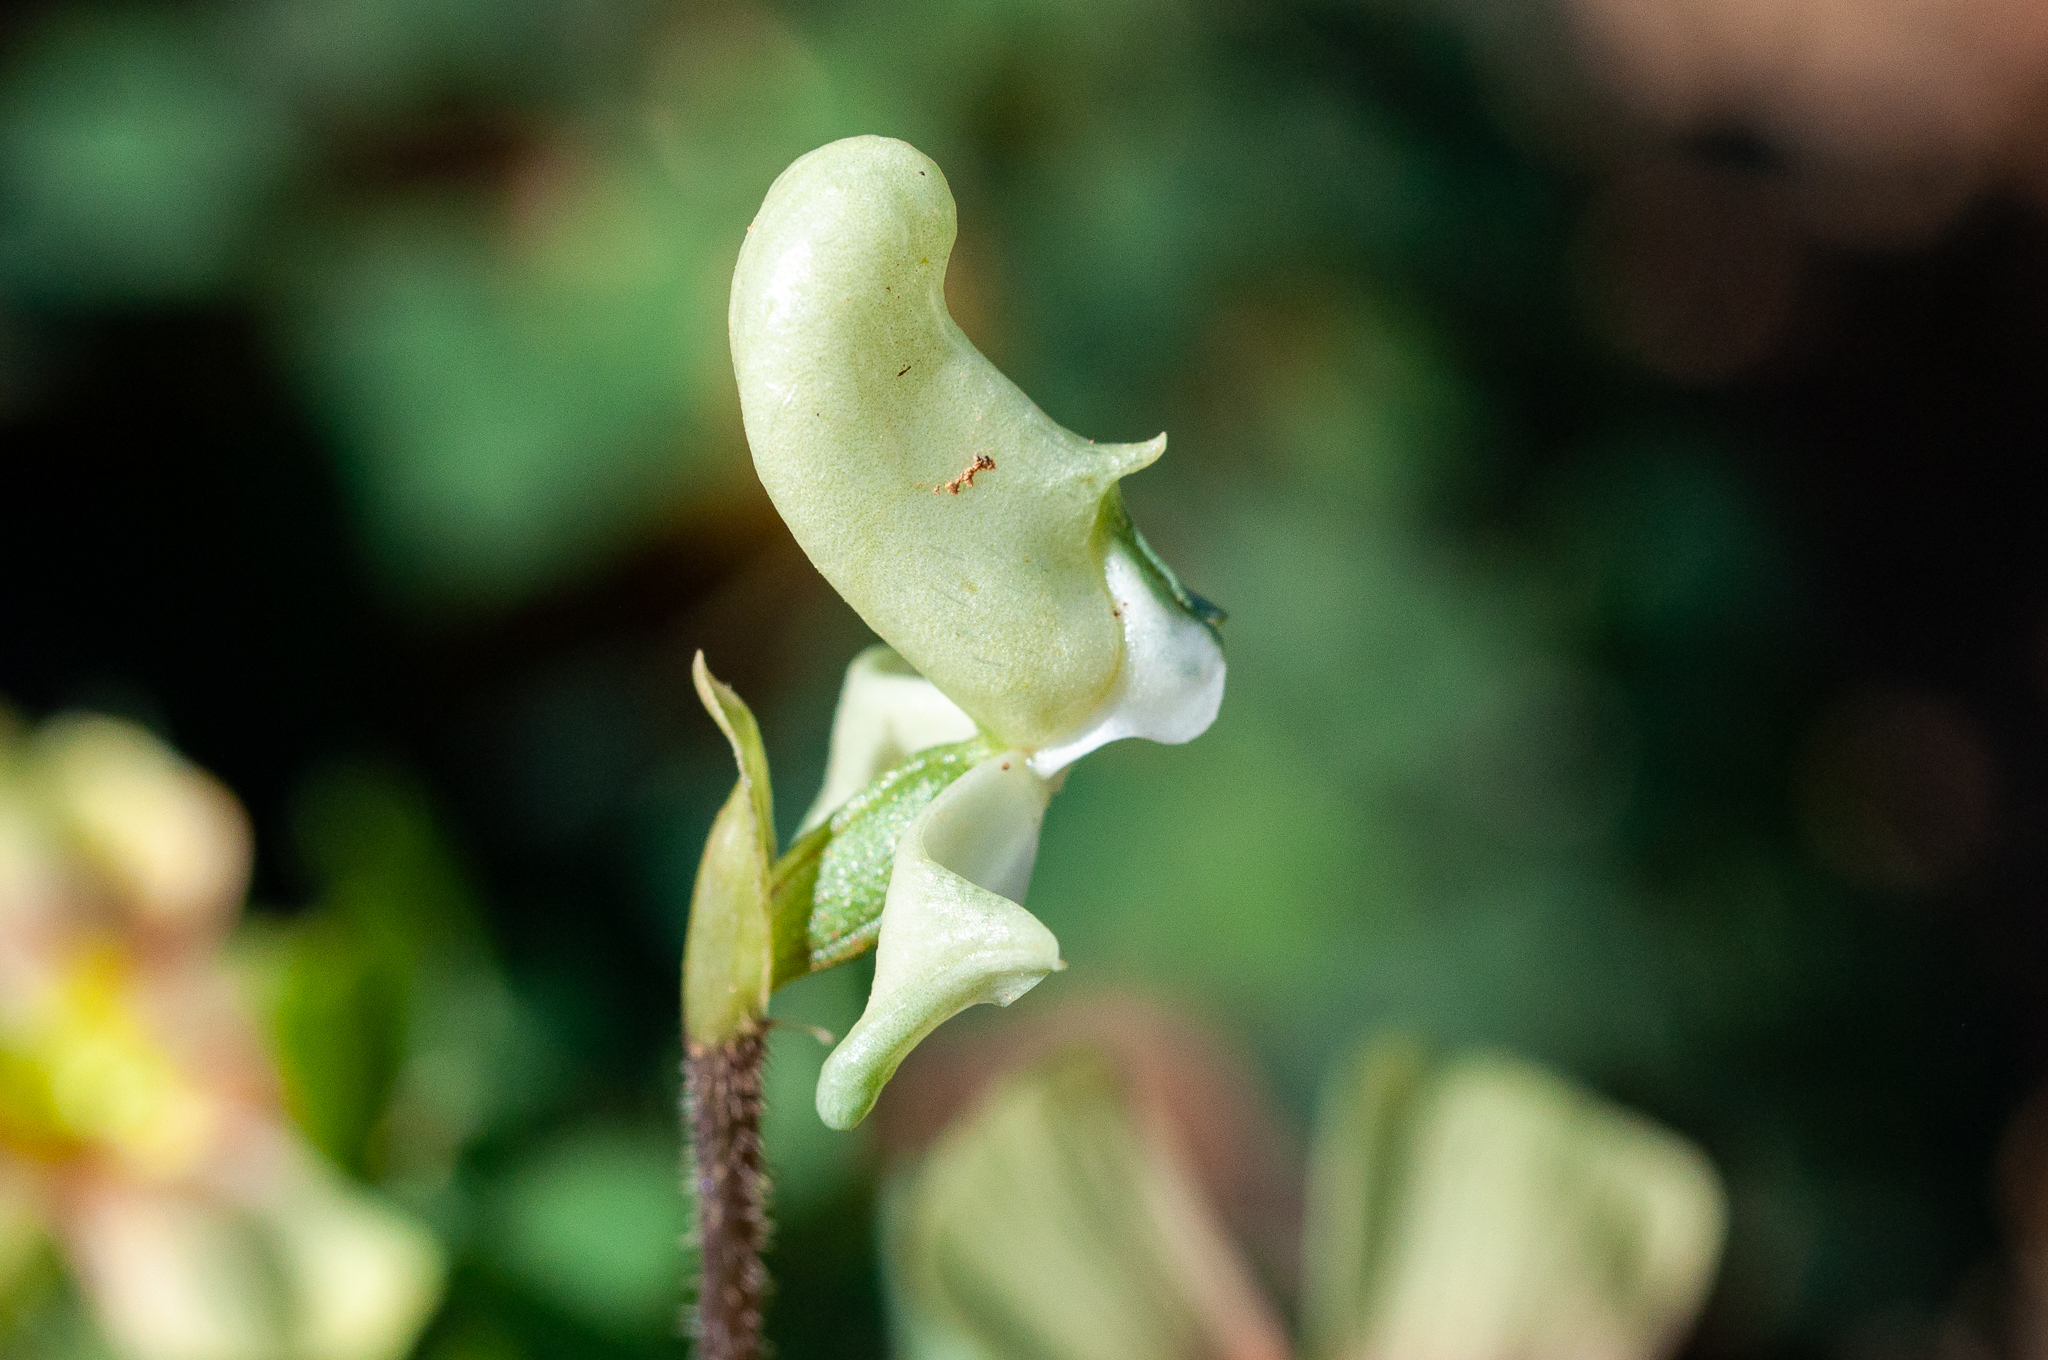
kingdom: Plantae
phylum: Tracheophyta
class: Liliopsida
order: Asparagales
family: Orchidaceae
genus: Disperis
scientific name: Disperis bolusiana
